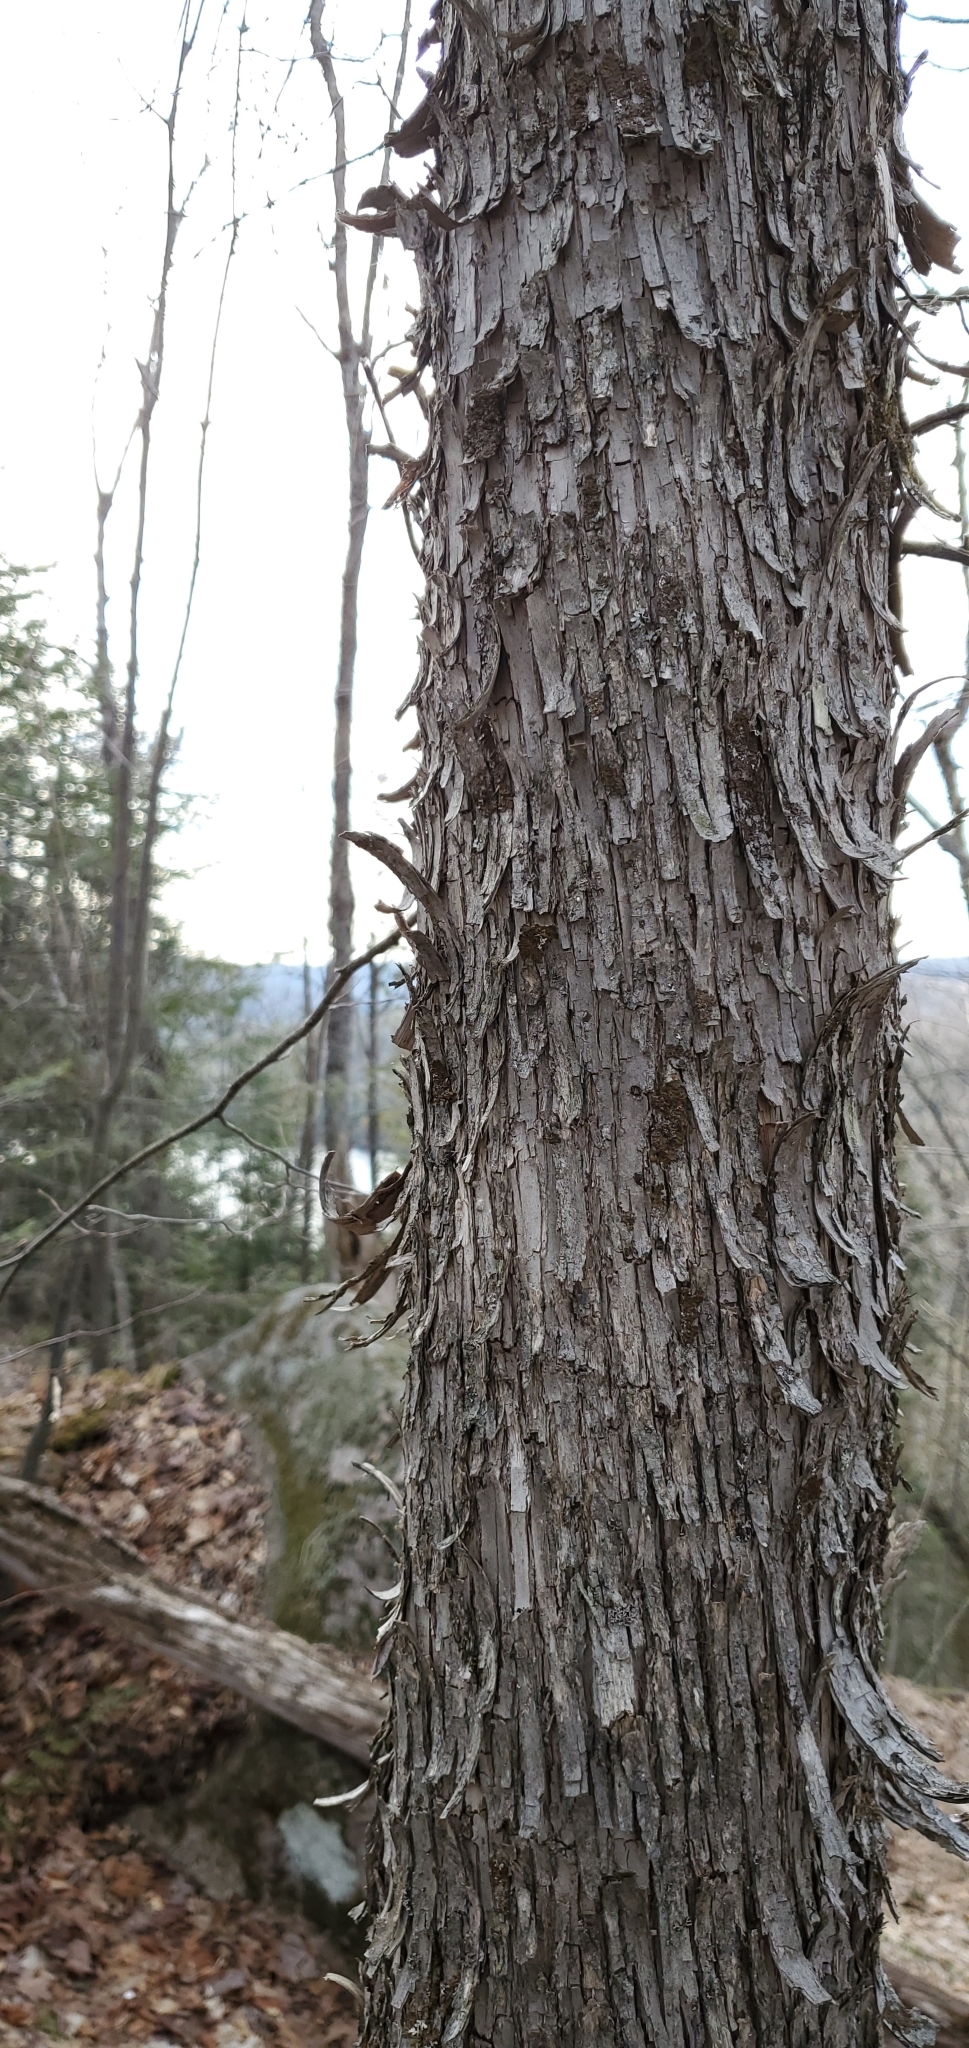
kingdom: Plantae
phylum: Tracheophyta
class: Magnoliopsida
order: Fagales
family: Betulaceae
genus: Ostrya
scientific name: Ostrya virginiana
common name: Ironwood
